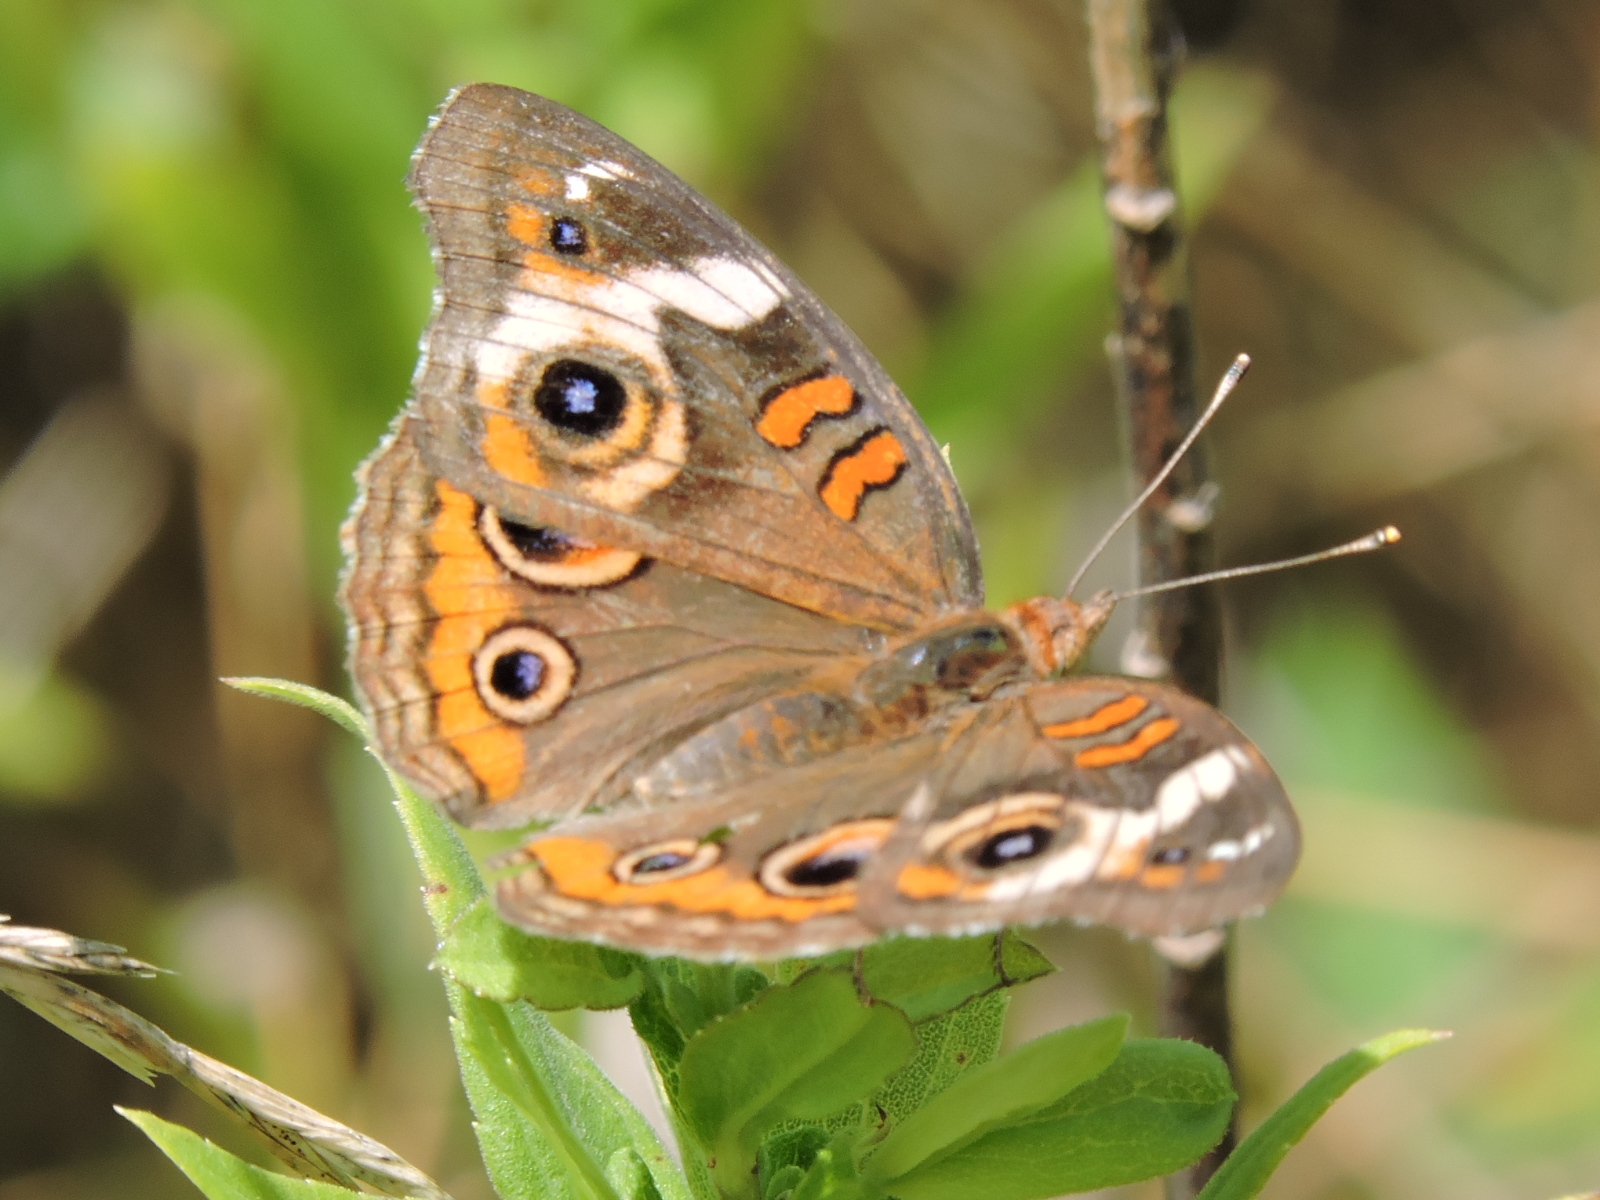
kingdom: Animalia
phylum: Arthropoda
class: Insecta
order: Lepidoptera
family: Nymphalidae
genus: Junonia
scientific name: Junonia coenia
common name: Common buckeye
